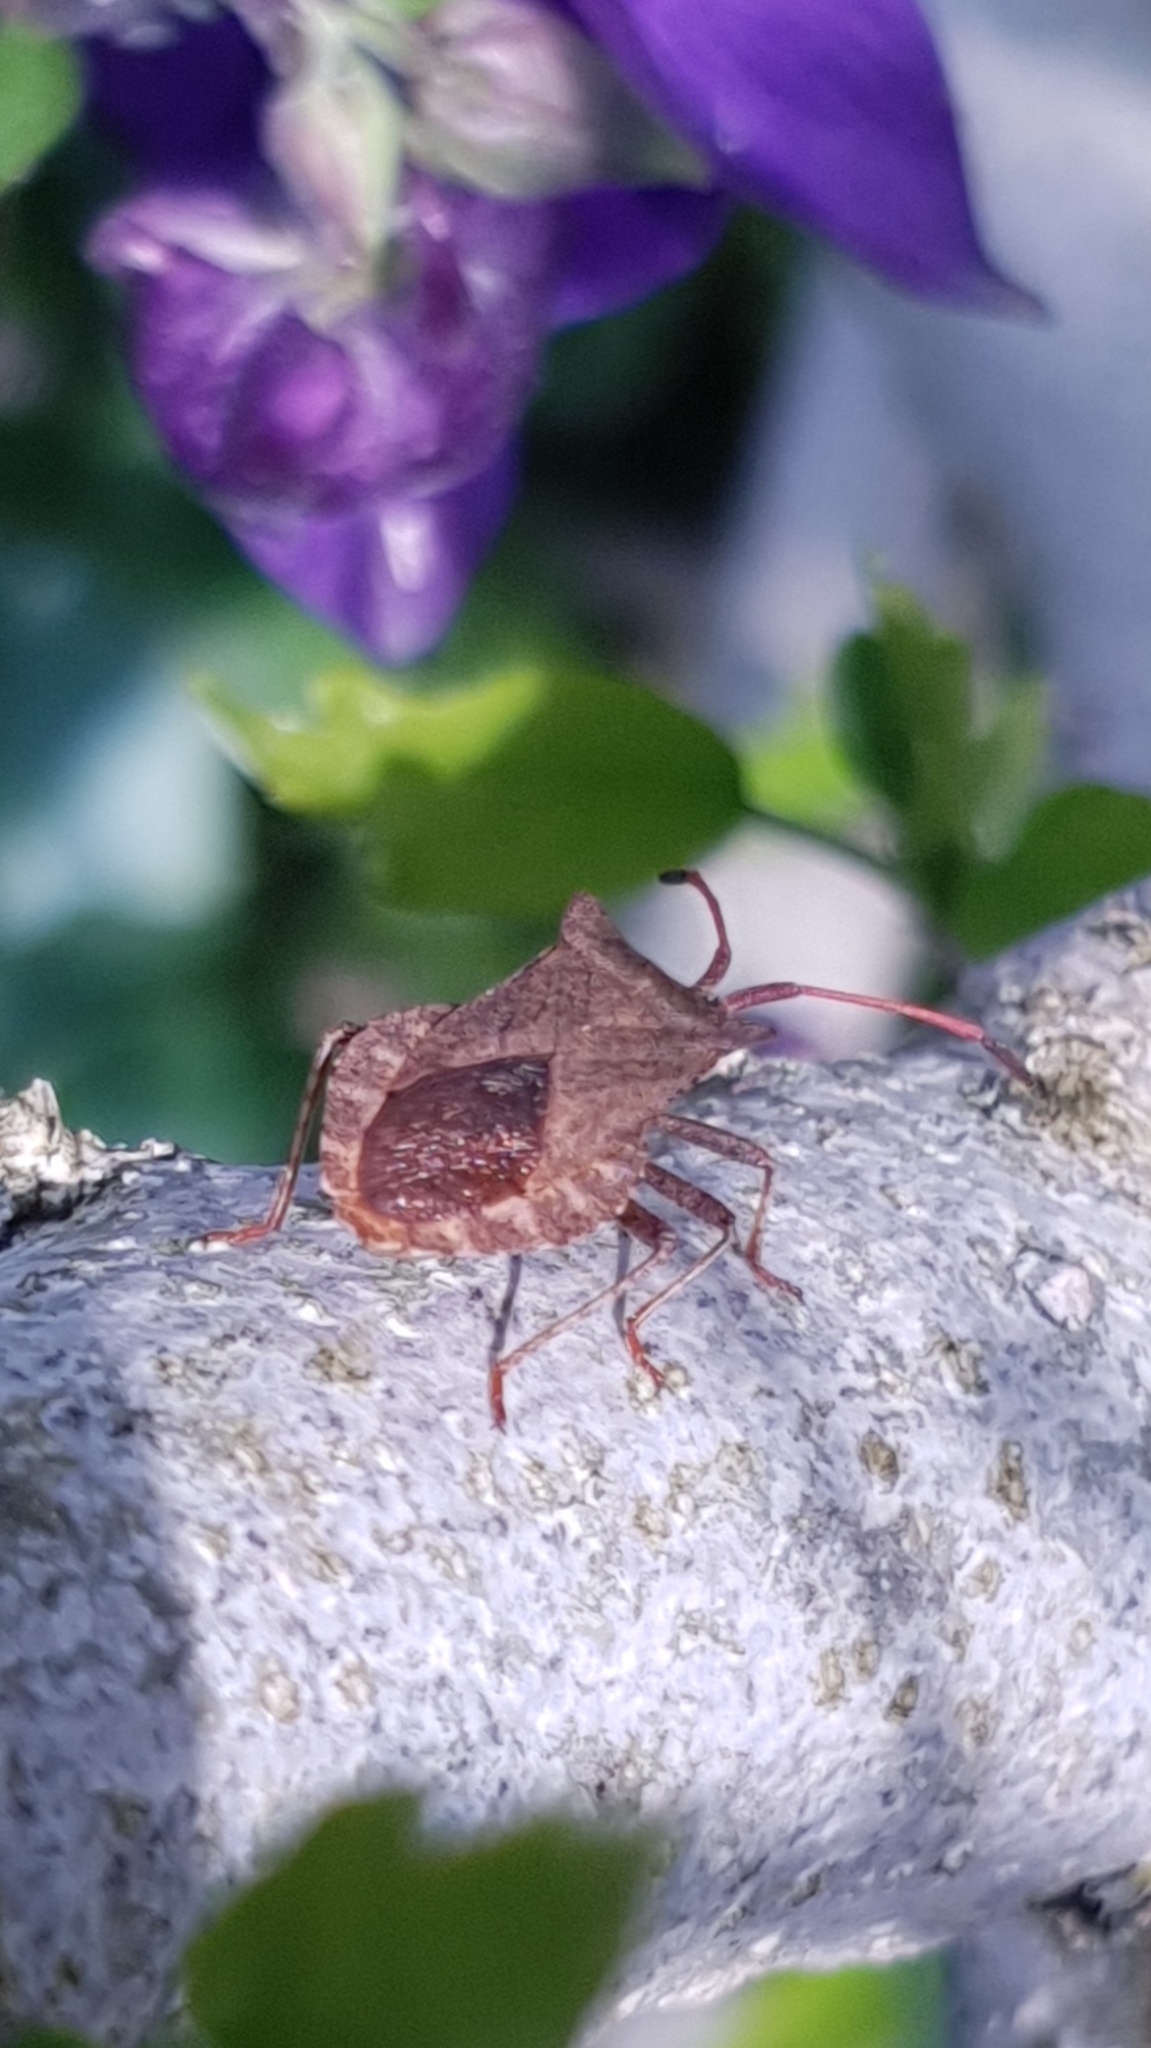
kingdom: Animalia
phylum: Arthropoda
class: Insecta
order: Hemiptera
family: Coreidae
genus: Coreus
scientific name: Coreus marginatus
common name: Dock bug
